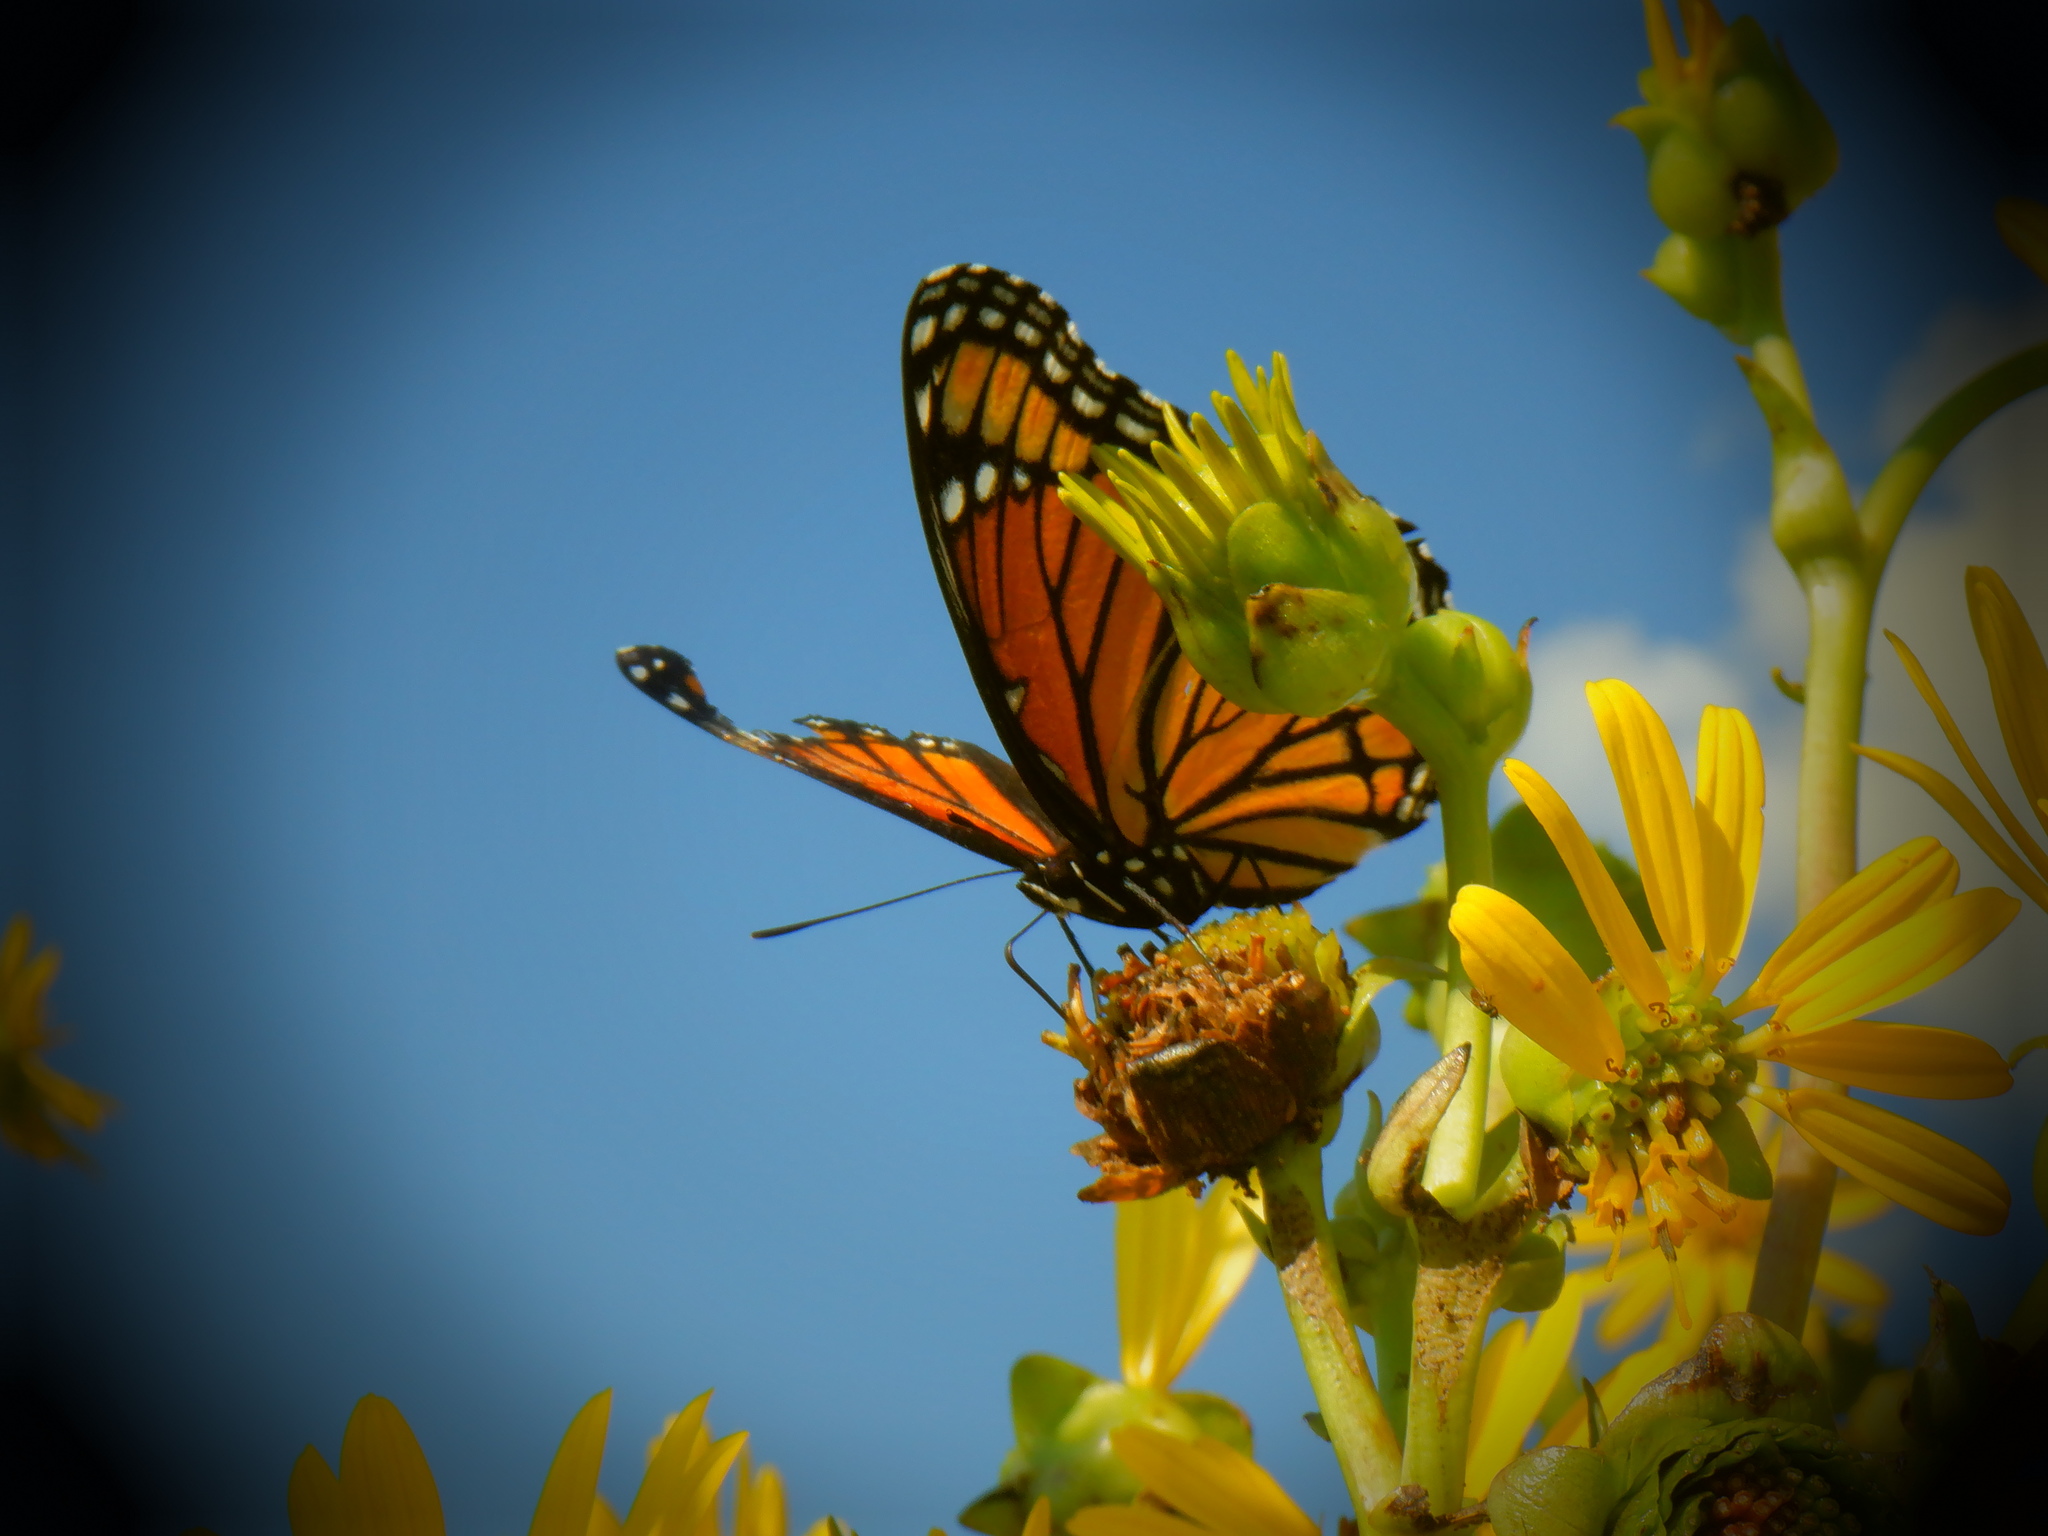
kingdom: Animalia
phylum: Arthropoda
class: Insecta
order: Lepidoptera
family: Nymphalidae
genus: Limenitis
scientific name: Limenitis archippus
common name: Viceroy
